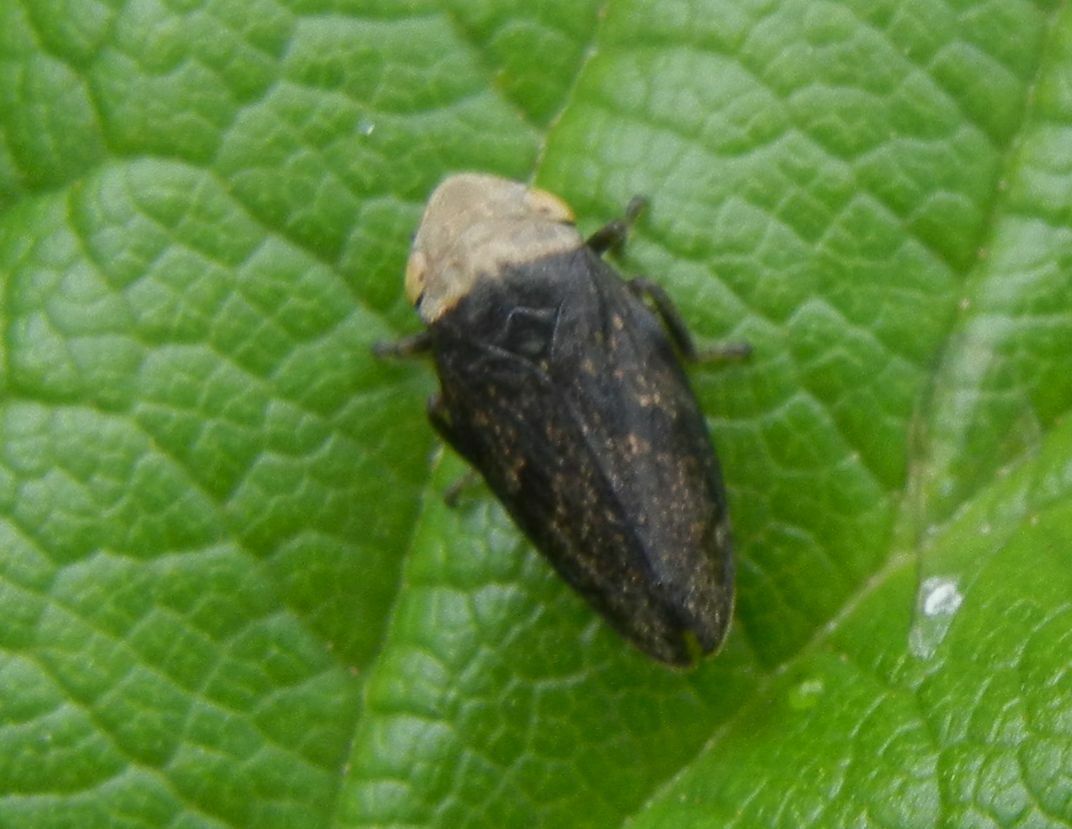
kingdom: Animalia
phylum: Arthropoda
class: Insecta
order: Hemiptera
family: Aphrophoridae
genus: Philaenus
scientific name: Philaenus spumarius
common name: Meadow spittlebug
